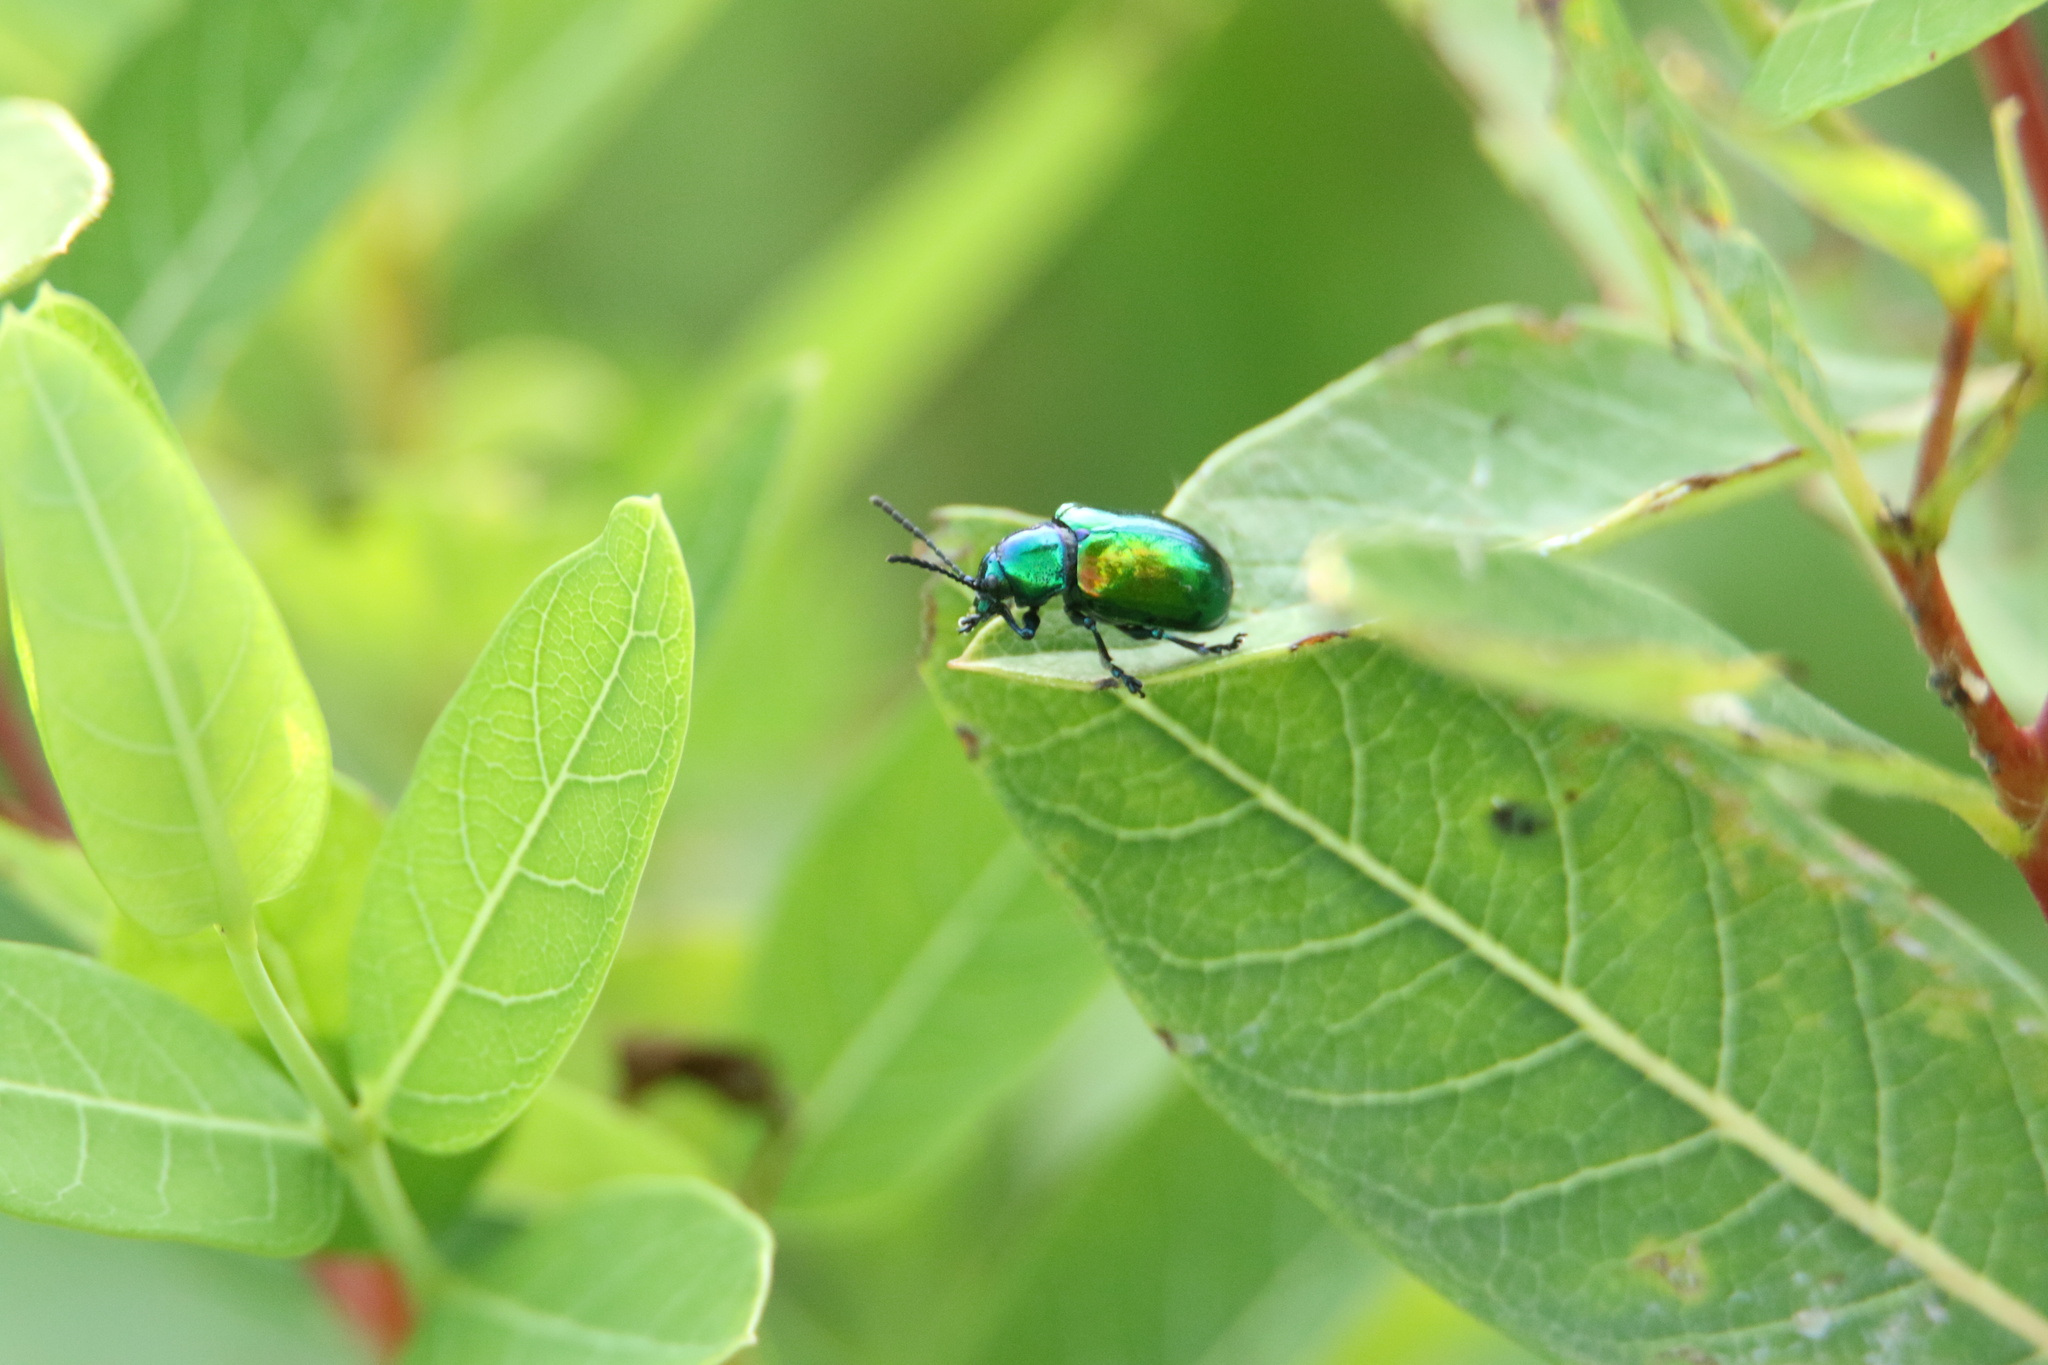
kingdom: Animalia
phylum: Arthropoda
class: Insecta
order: Coleoptera
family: Chrysomelidae
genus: Chrysochus
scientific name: Chrysochus auratus
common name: Dogbane leaf beetle
